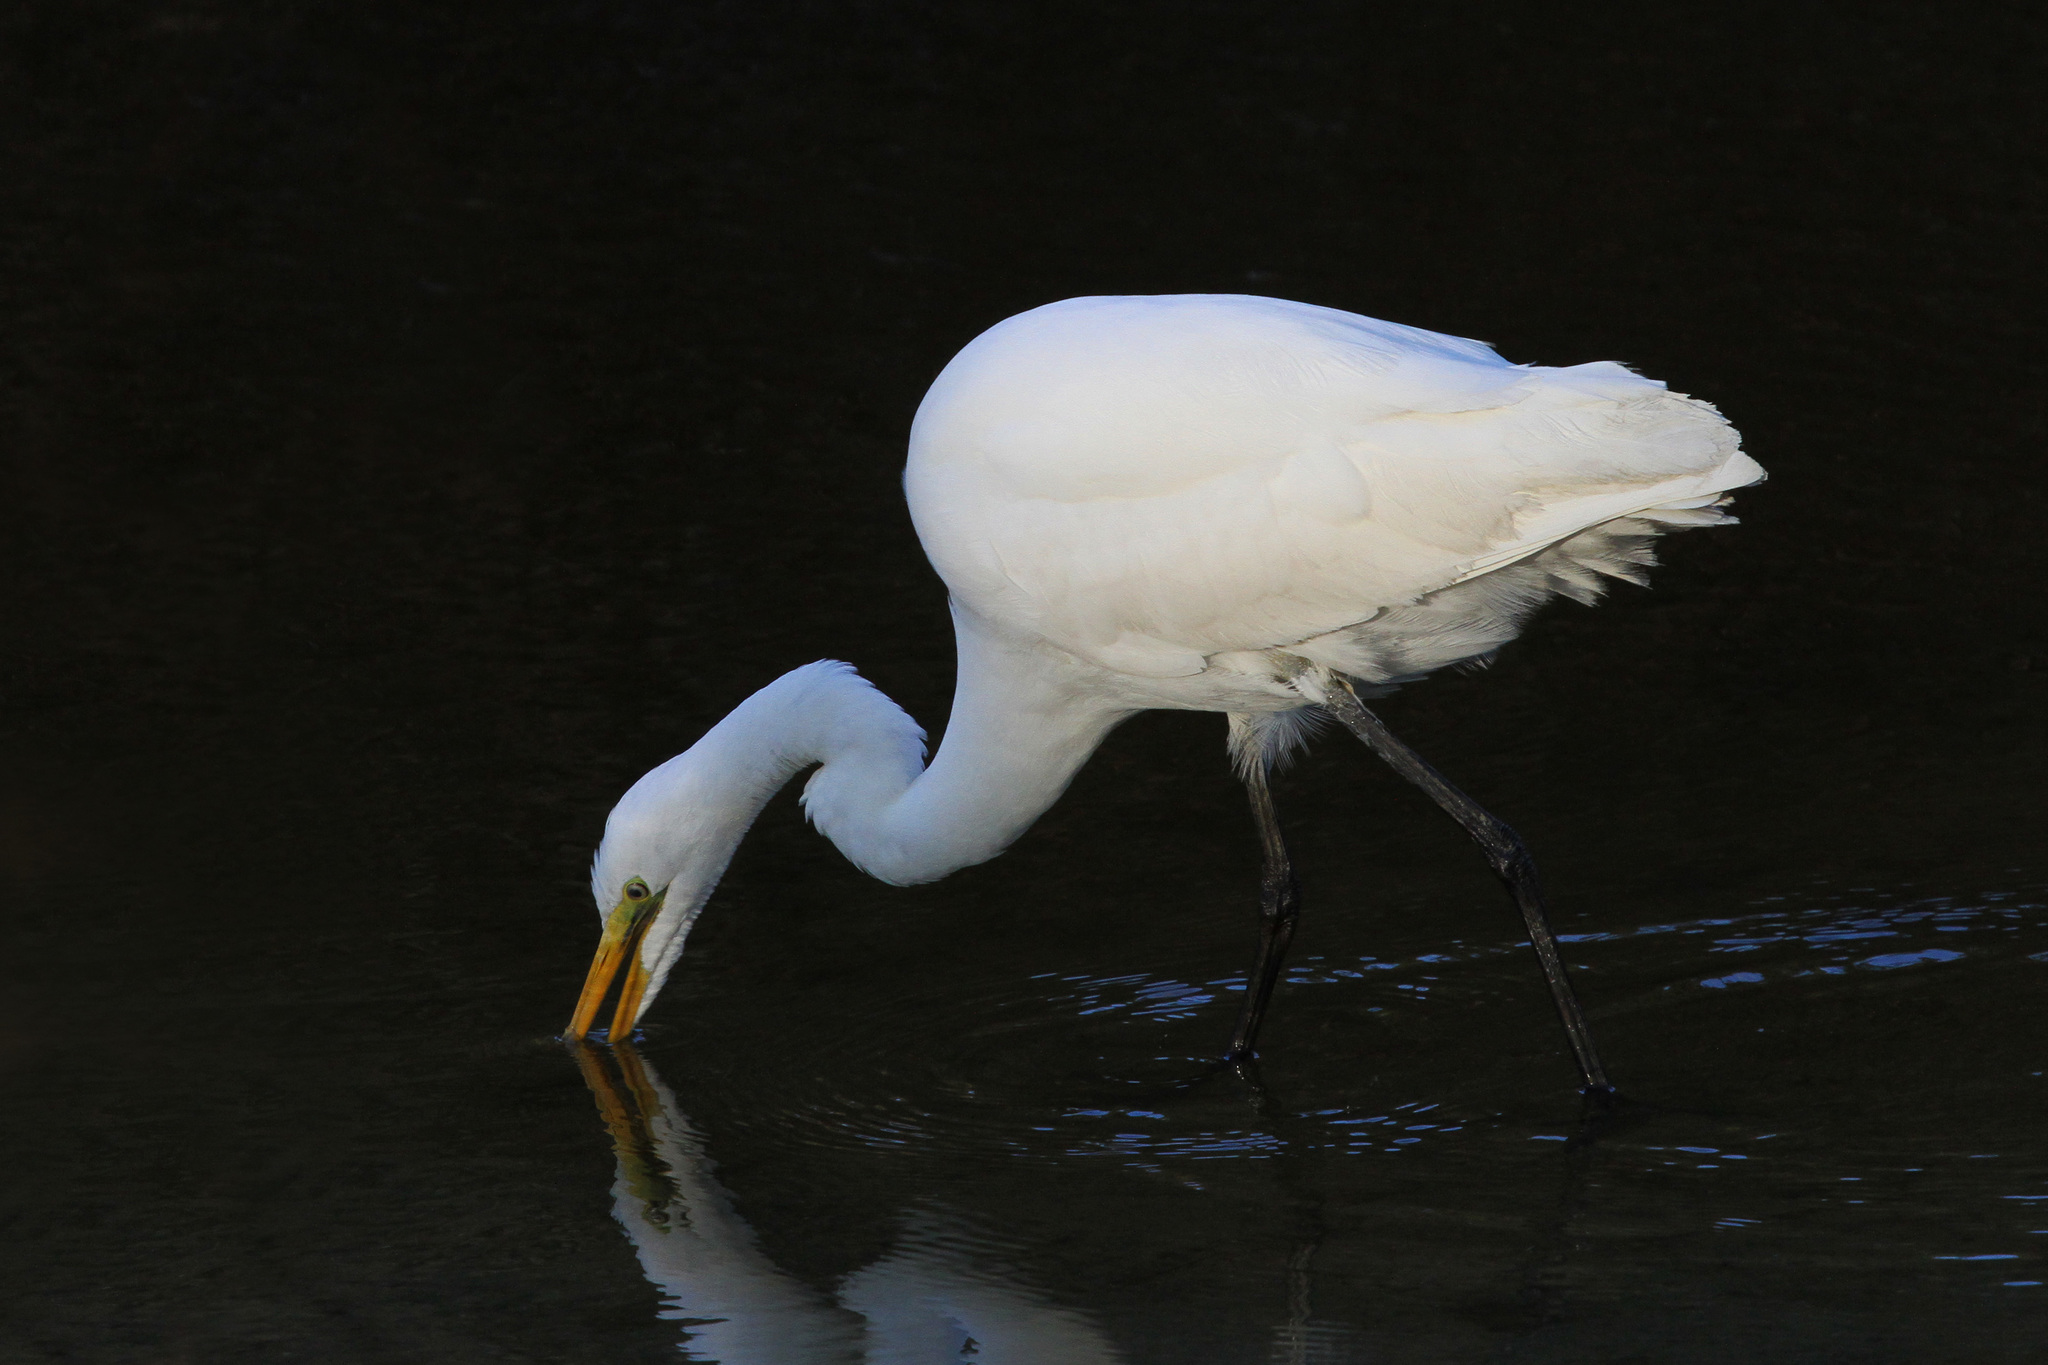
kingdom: Animalia
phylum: Chordata
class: Aves
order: Pelecaniformes
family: Ardeidae
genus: Ardea
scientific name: Ardea alba
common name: Great egret
